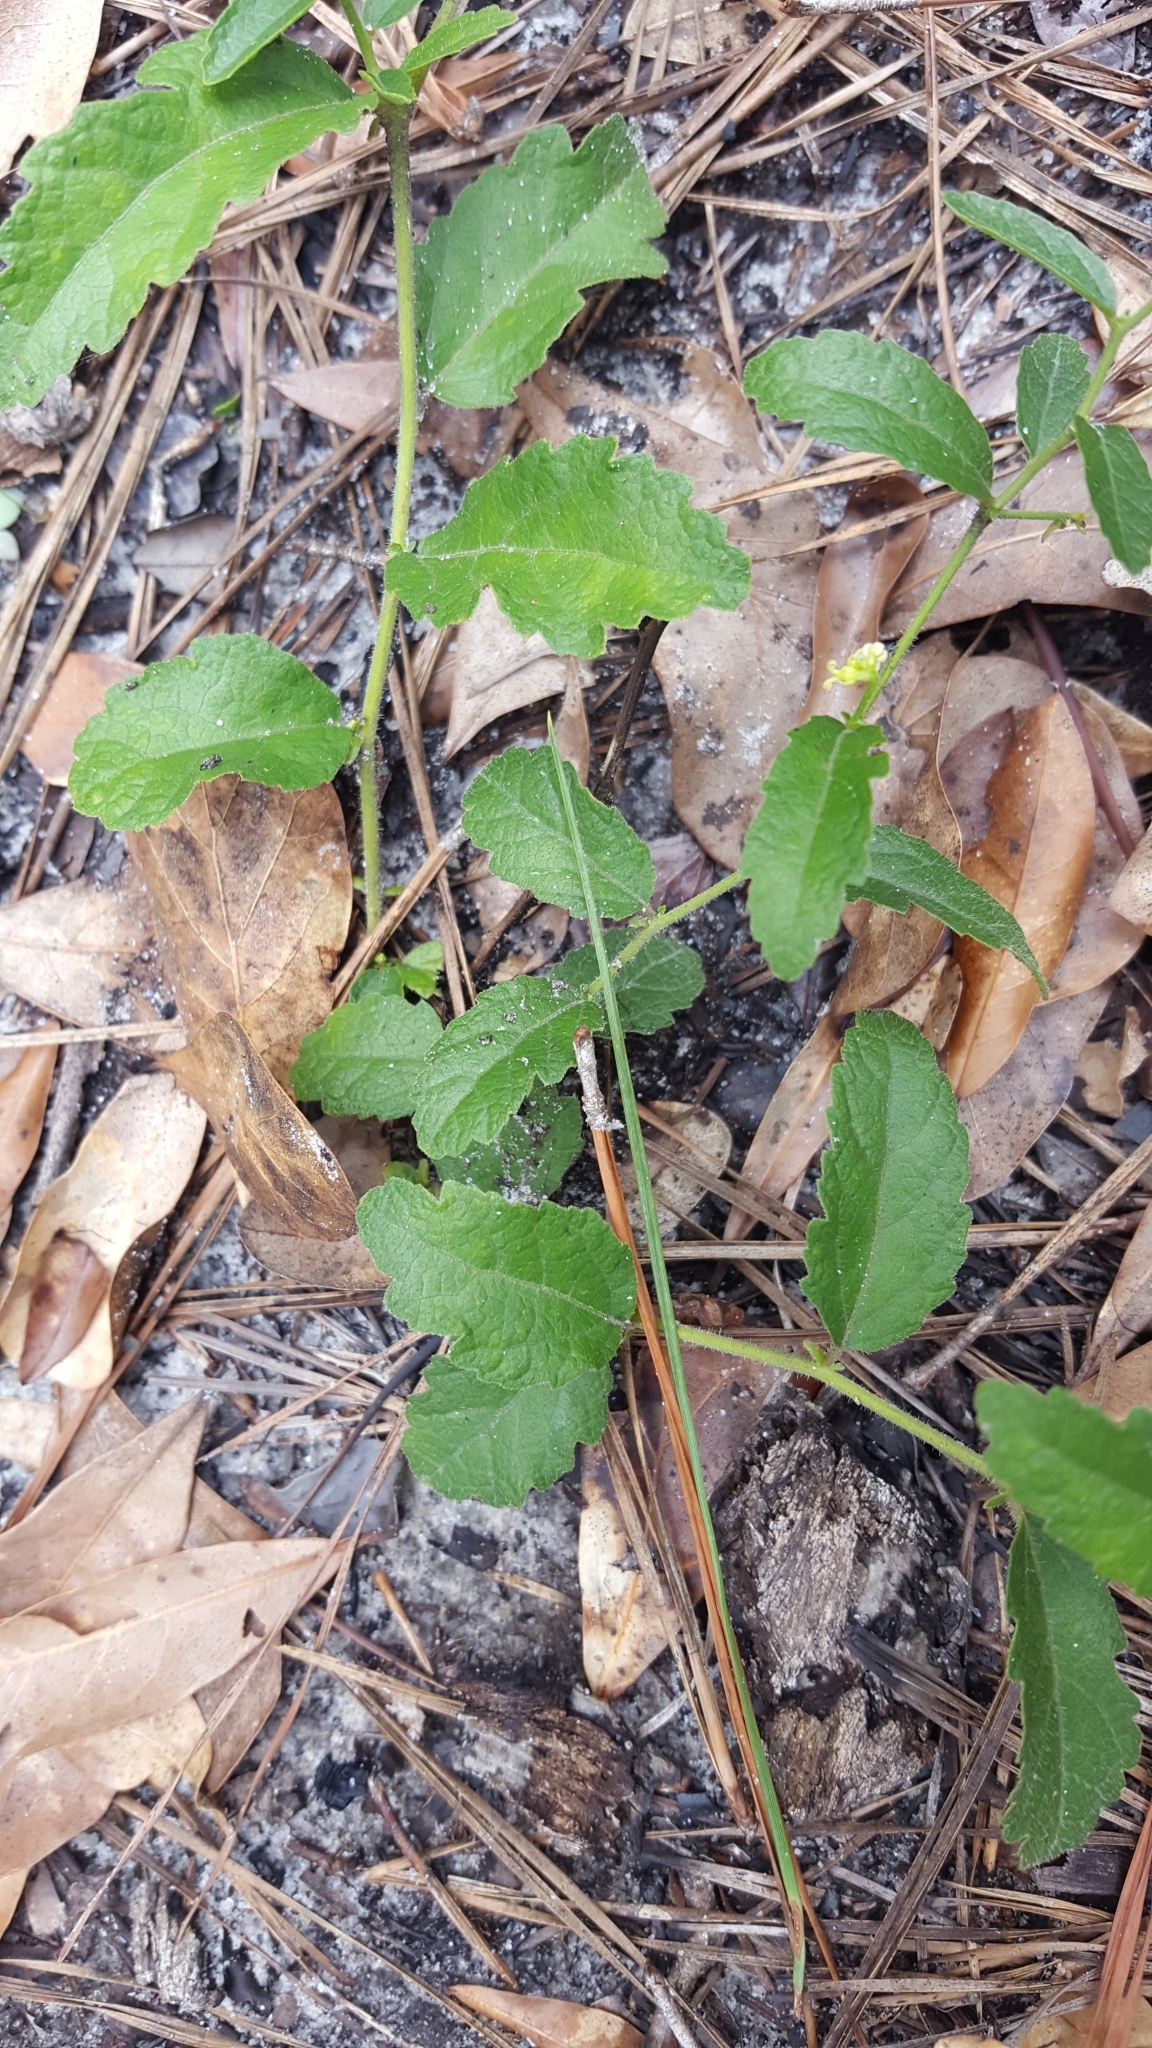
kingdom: Plantae
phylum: Tracheophyta
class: Magnoliopsida
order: Malpighiales
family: Euphorbiaceae
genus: Tragia
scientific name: Tragia smallii
